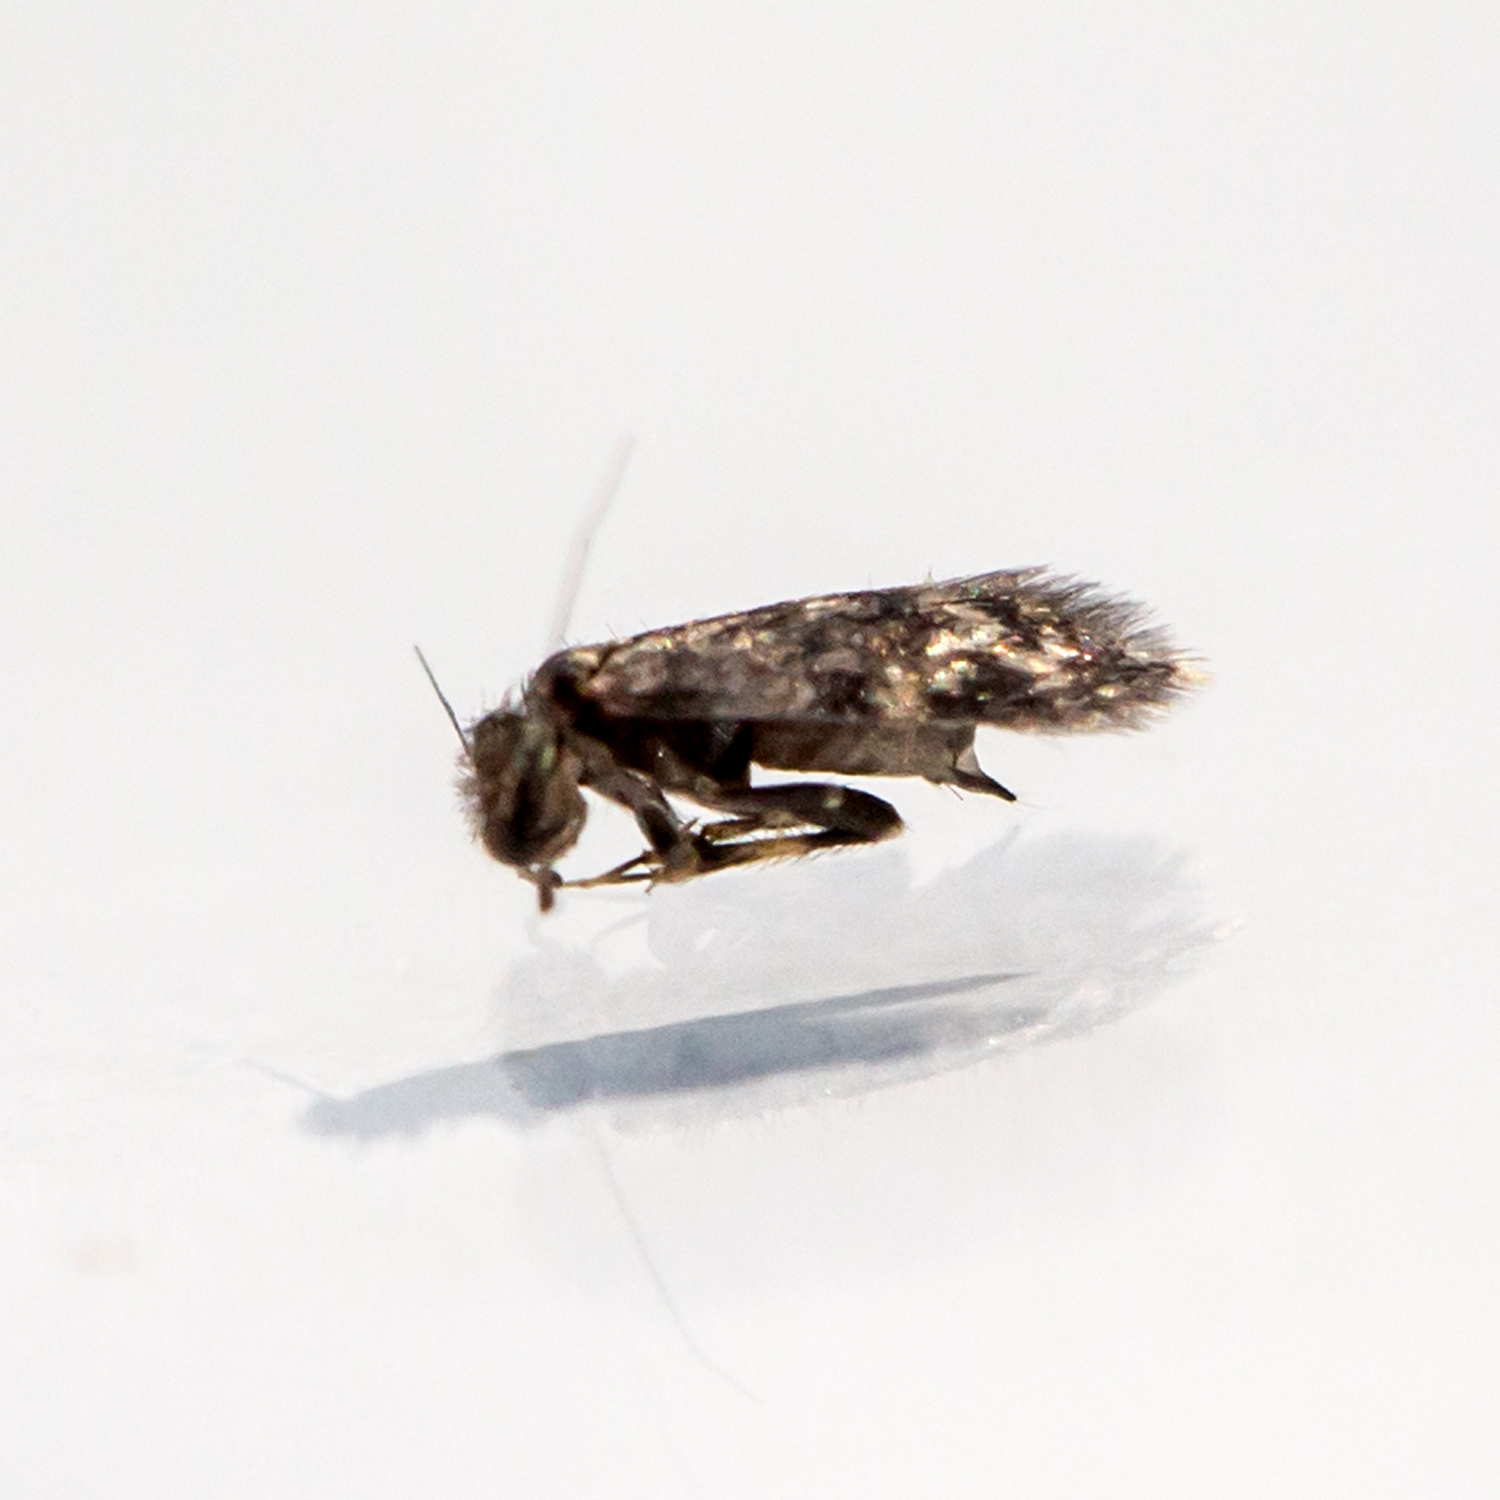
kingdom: Animalia
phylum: Arthropoda
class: Insecta
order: Psocodea
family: Lepidopsocidae
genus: Echmepteryx
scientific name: Echmepteryx hageni
